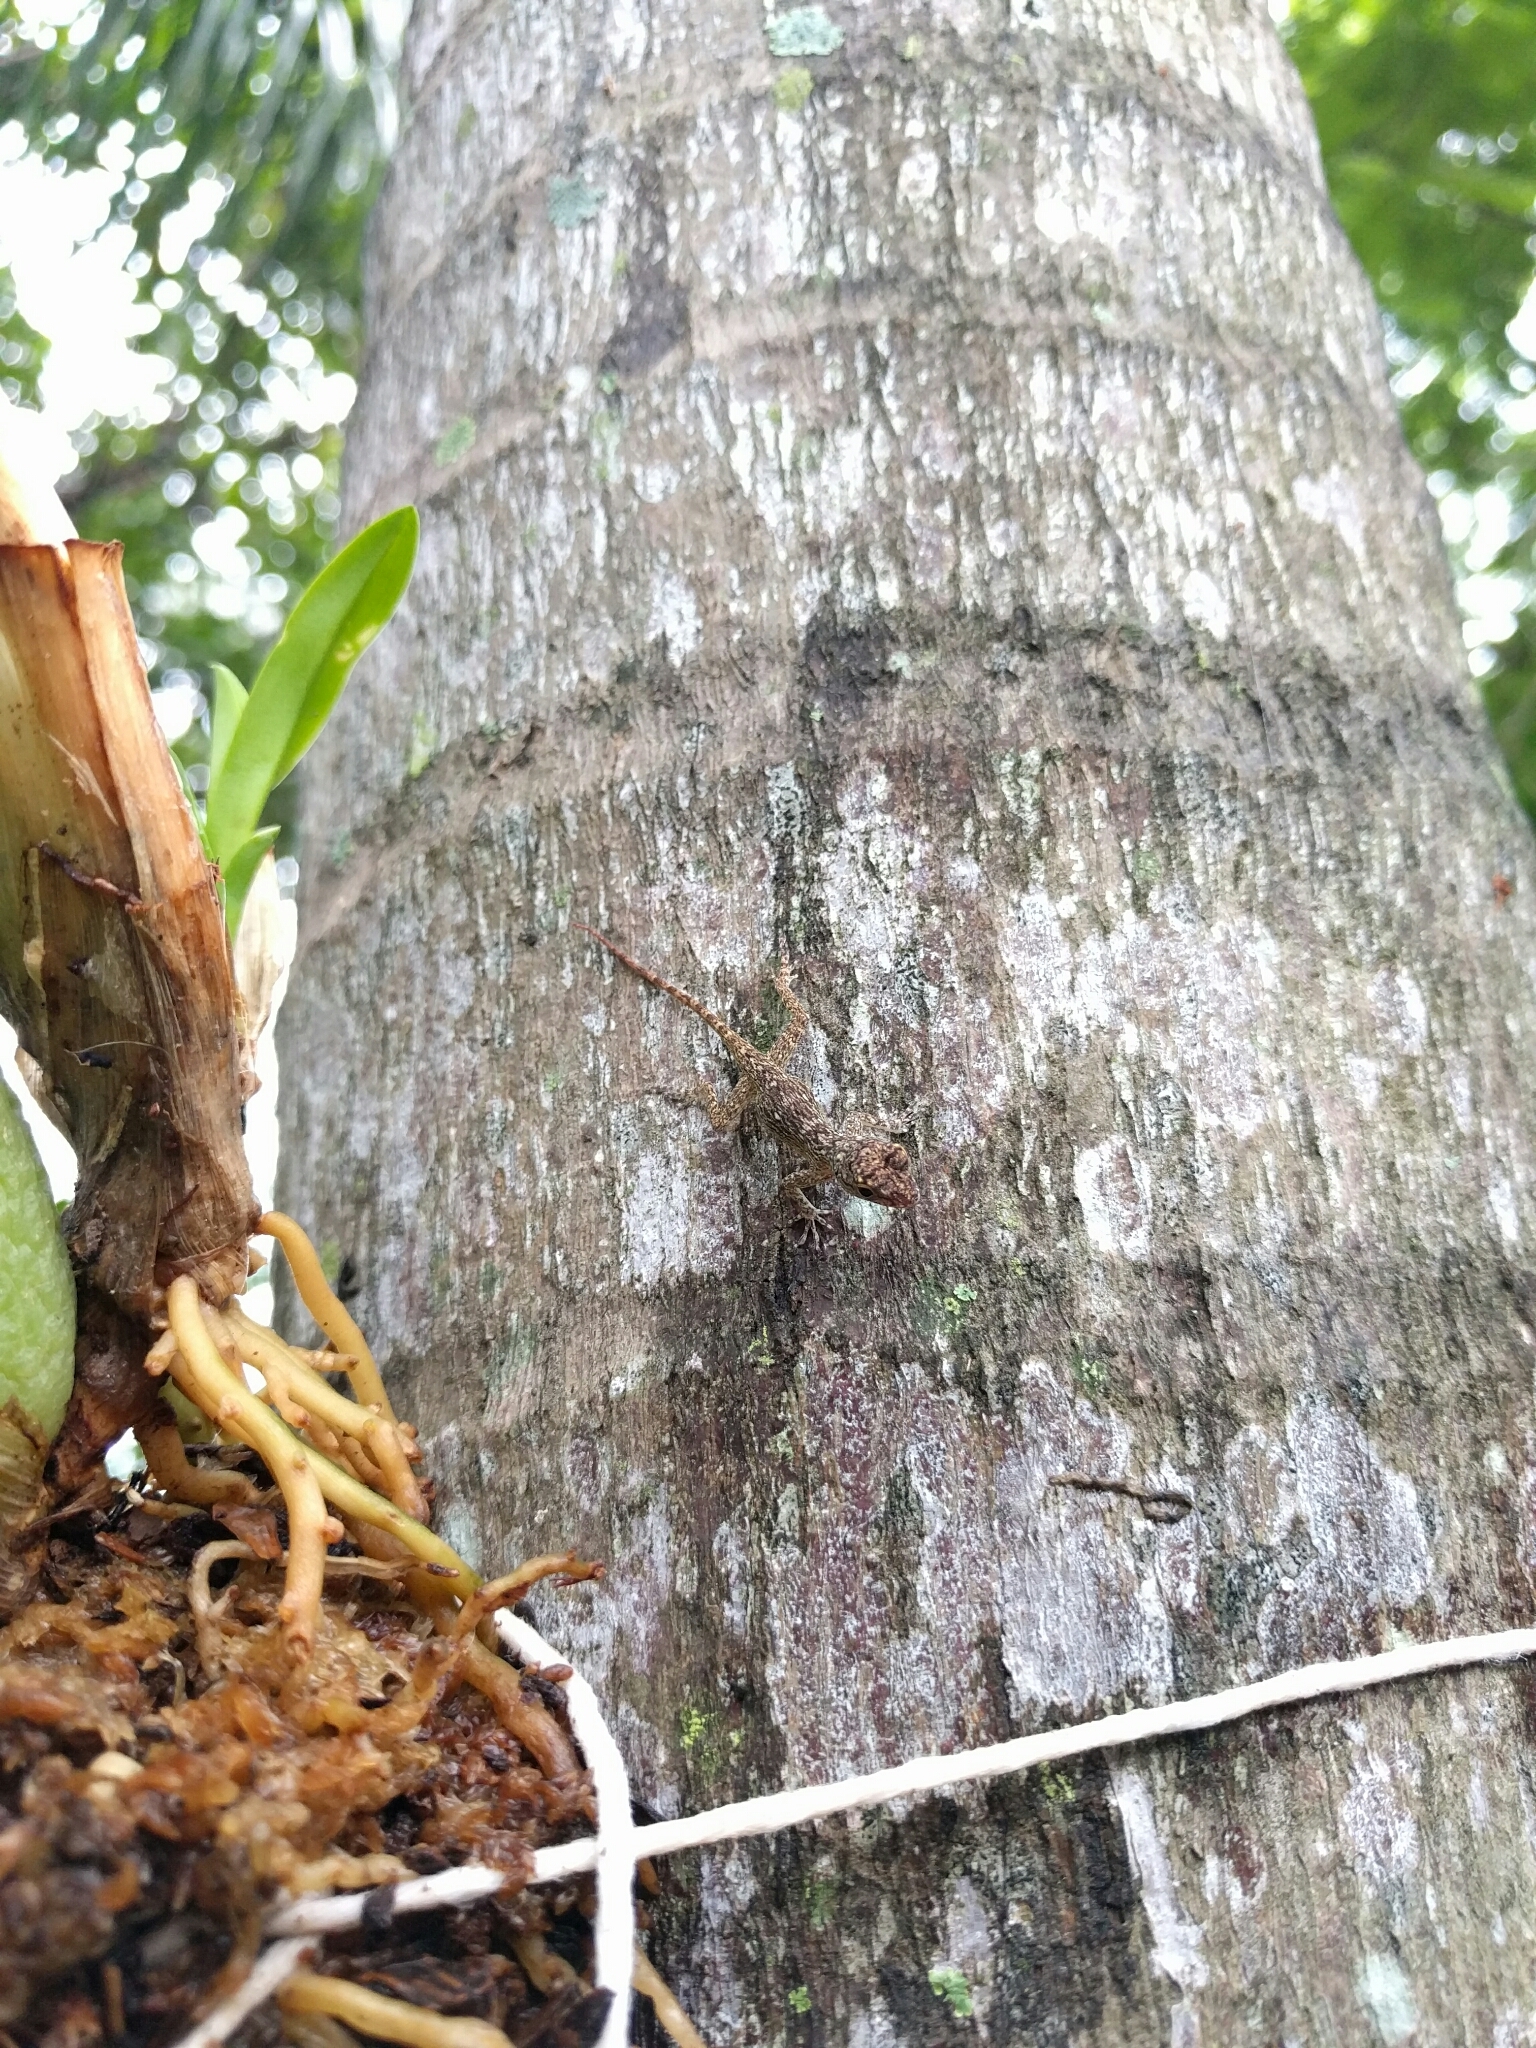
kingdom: Animalia
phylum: Chordata
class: Squamata
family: Dactyloidae
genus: Anolis
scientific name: Anolis distichus
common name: Bark anole
